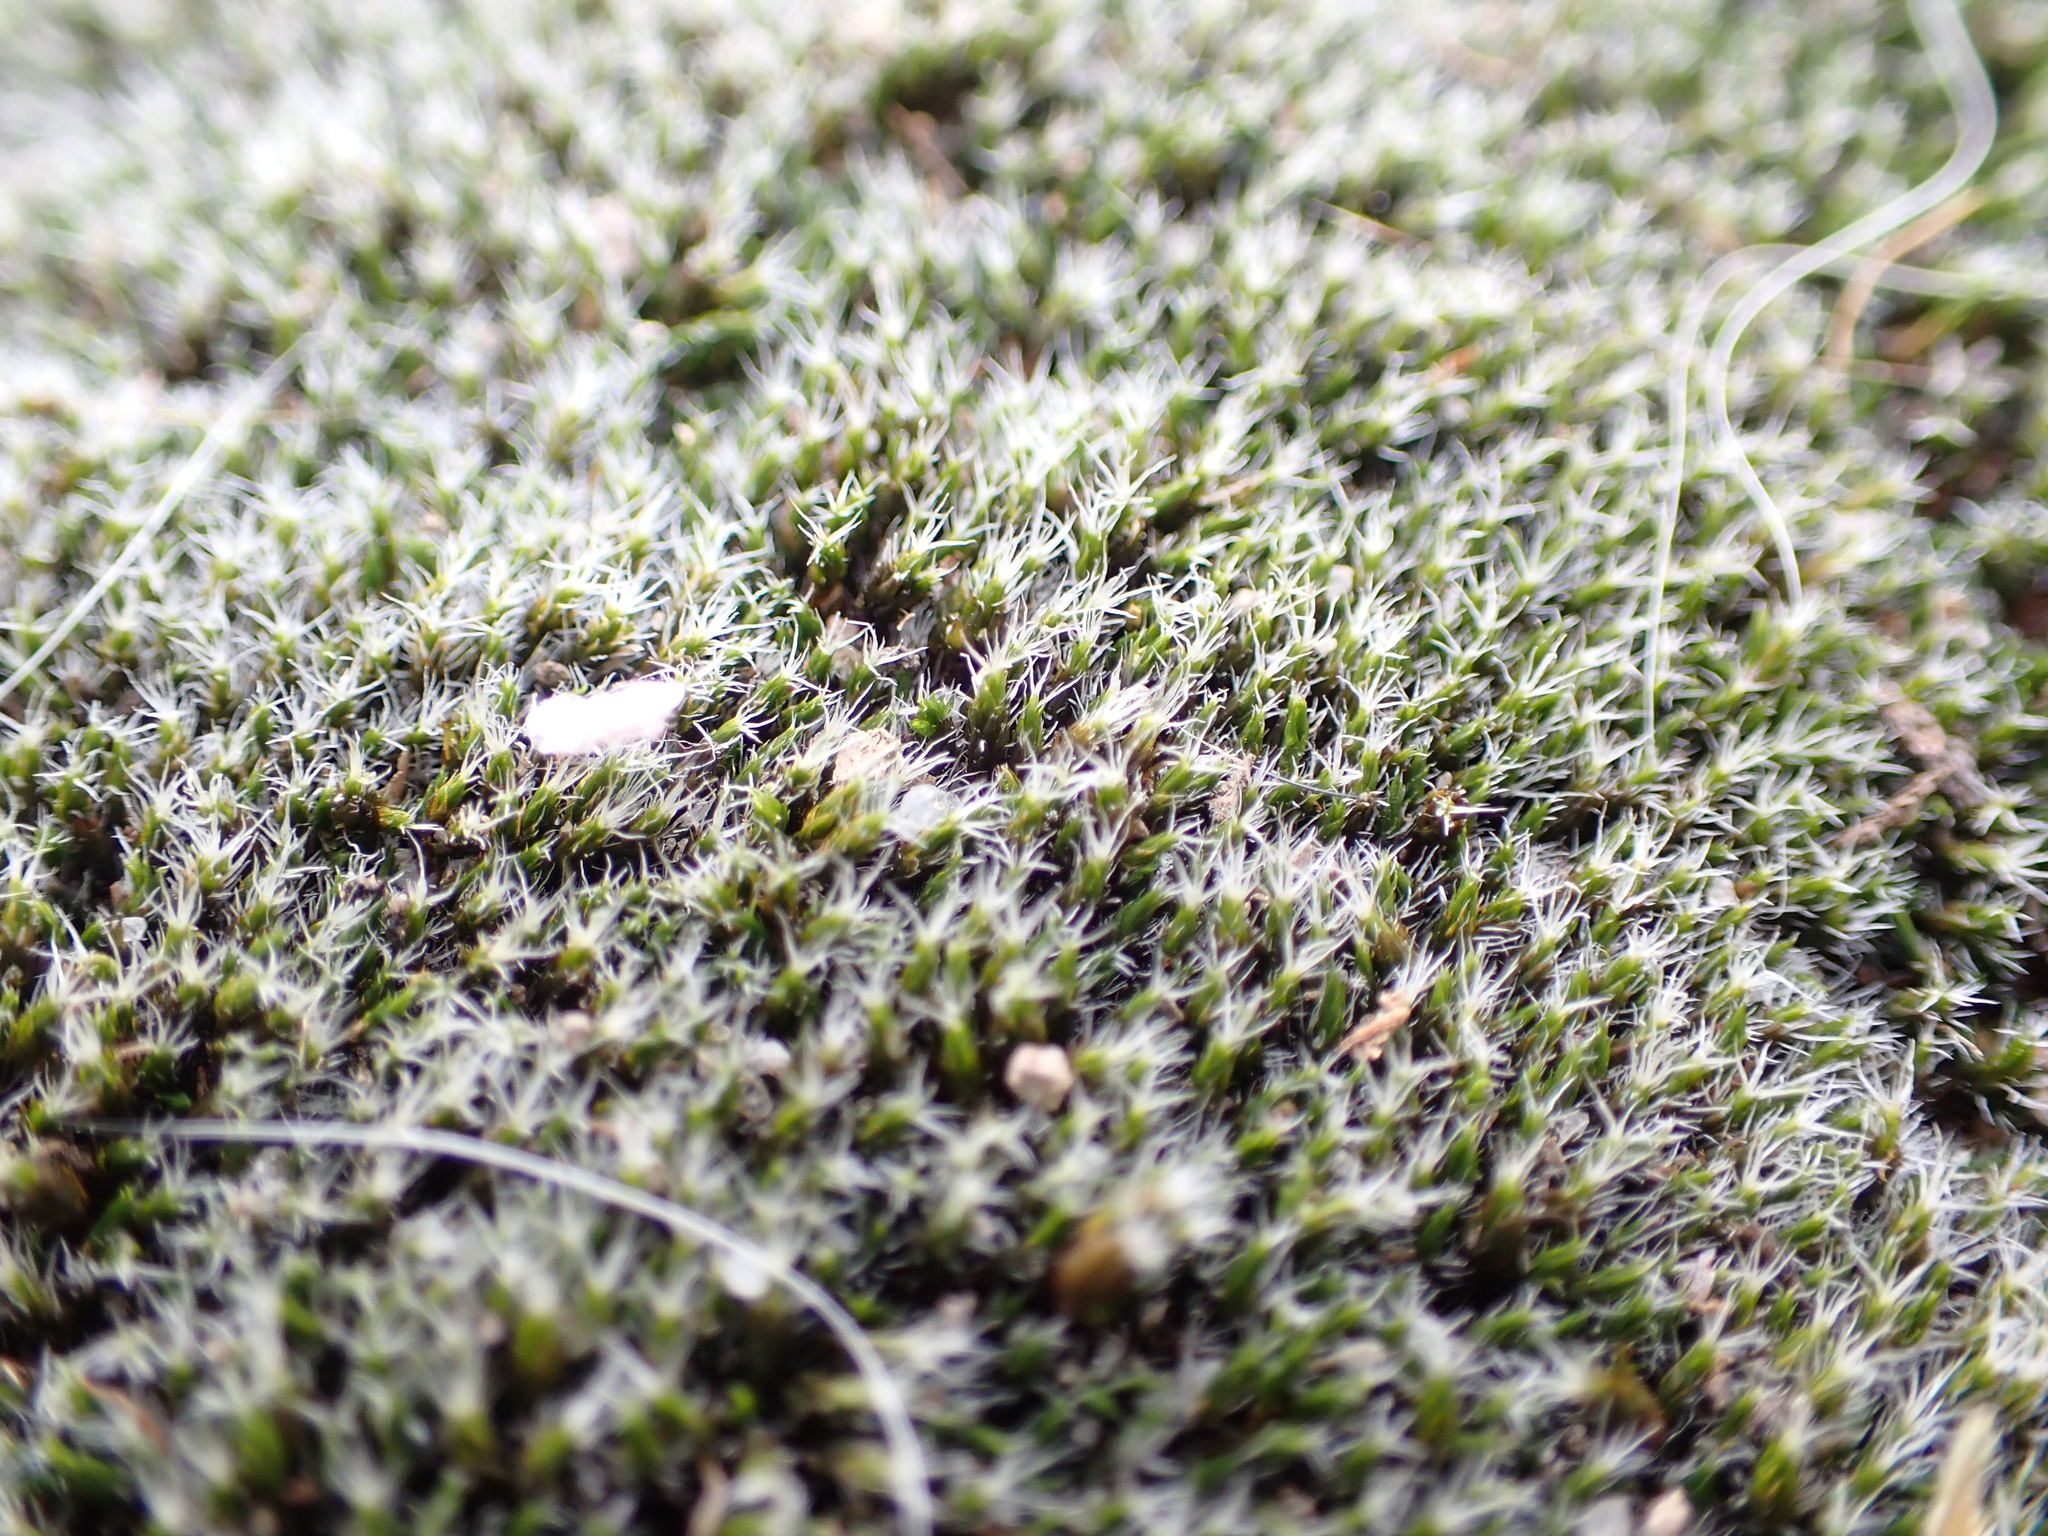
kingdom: Plantae
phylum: Bryophyta
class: Bryopsida
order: Grimmiales
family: Grimmiaceae
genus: Grimmia
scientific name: Grimmia laevigata
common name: Hoary grimmia
